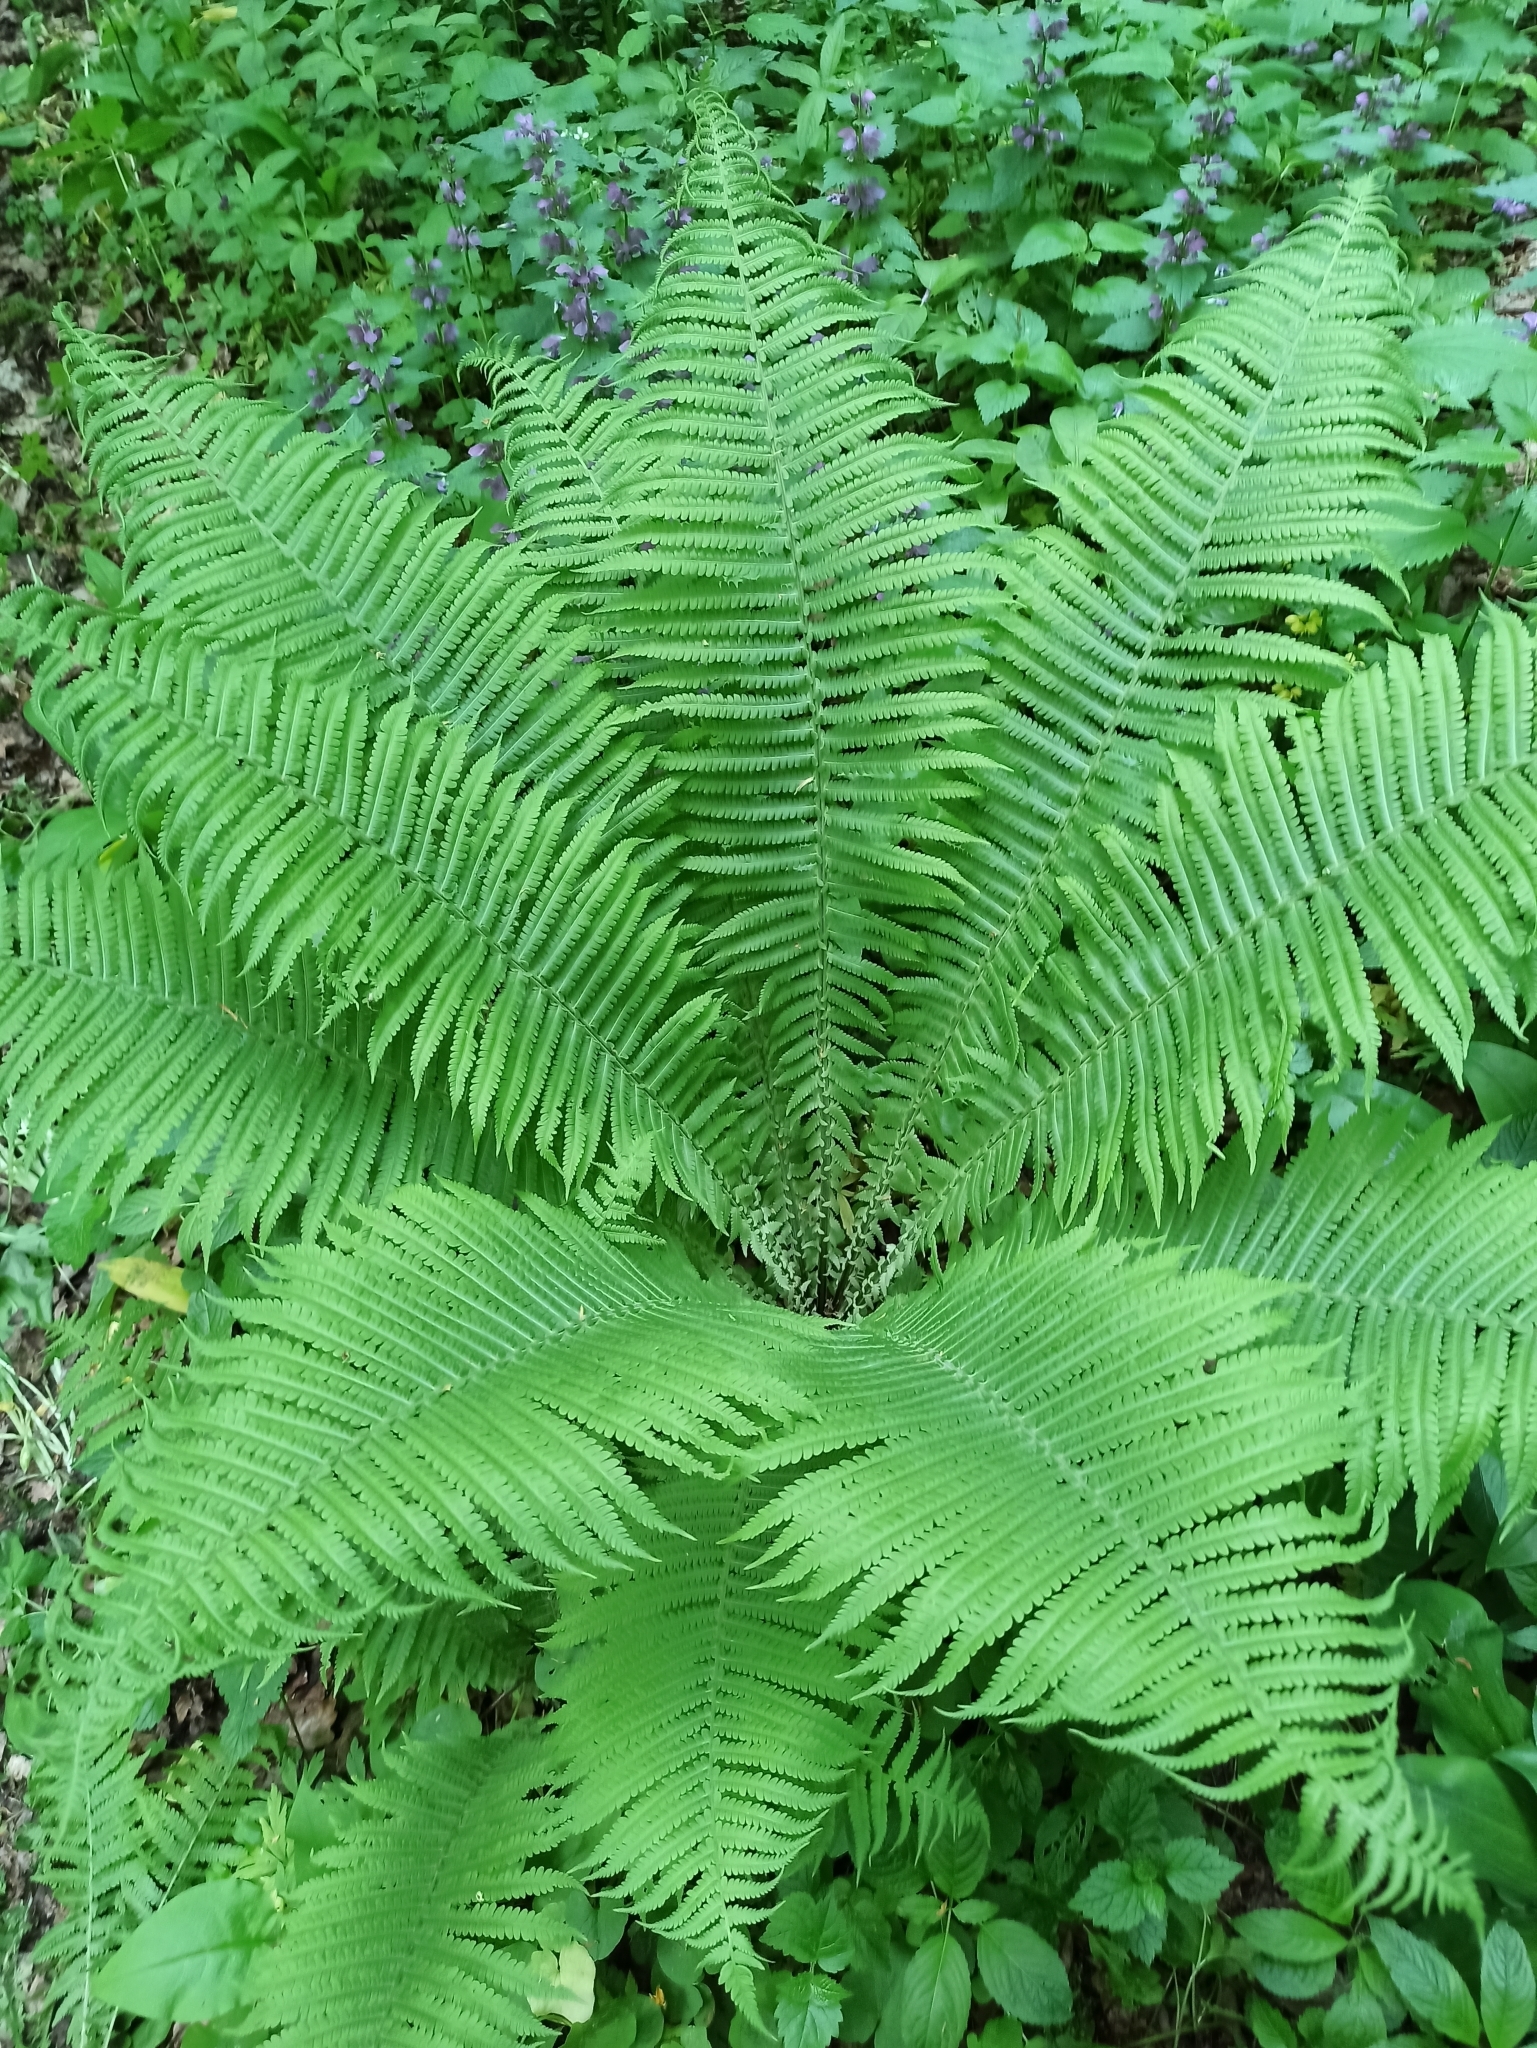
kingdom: Plantae
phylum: Tracheophyta
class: Polypodiopsida
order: Polypodiales
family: Onocleaceae
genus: Matteuccia
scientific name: Matteuccia struthiopteris
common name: Ostrich fern
